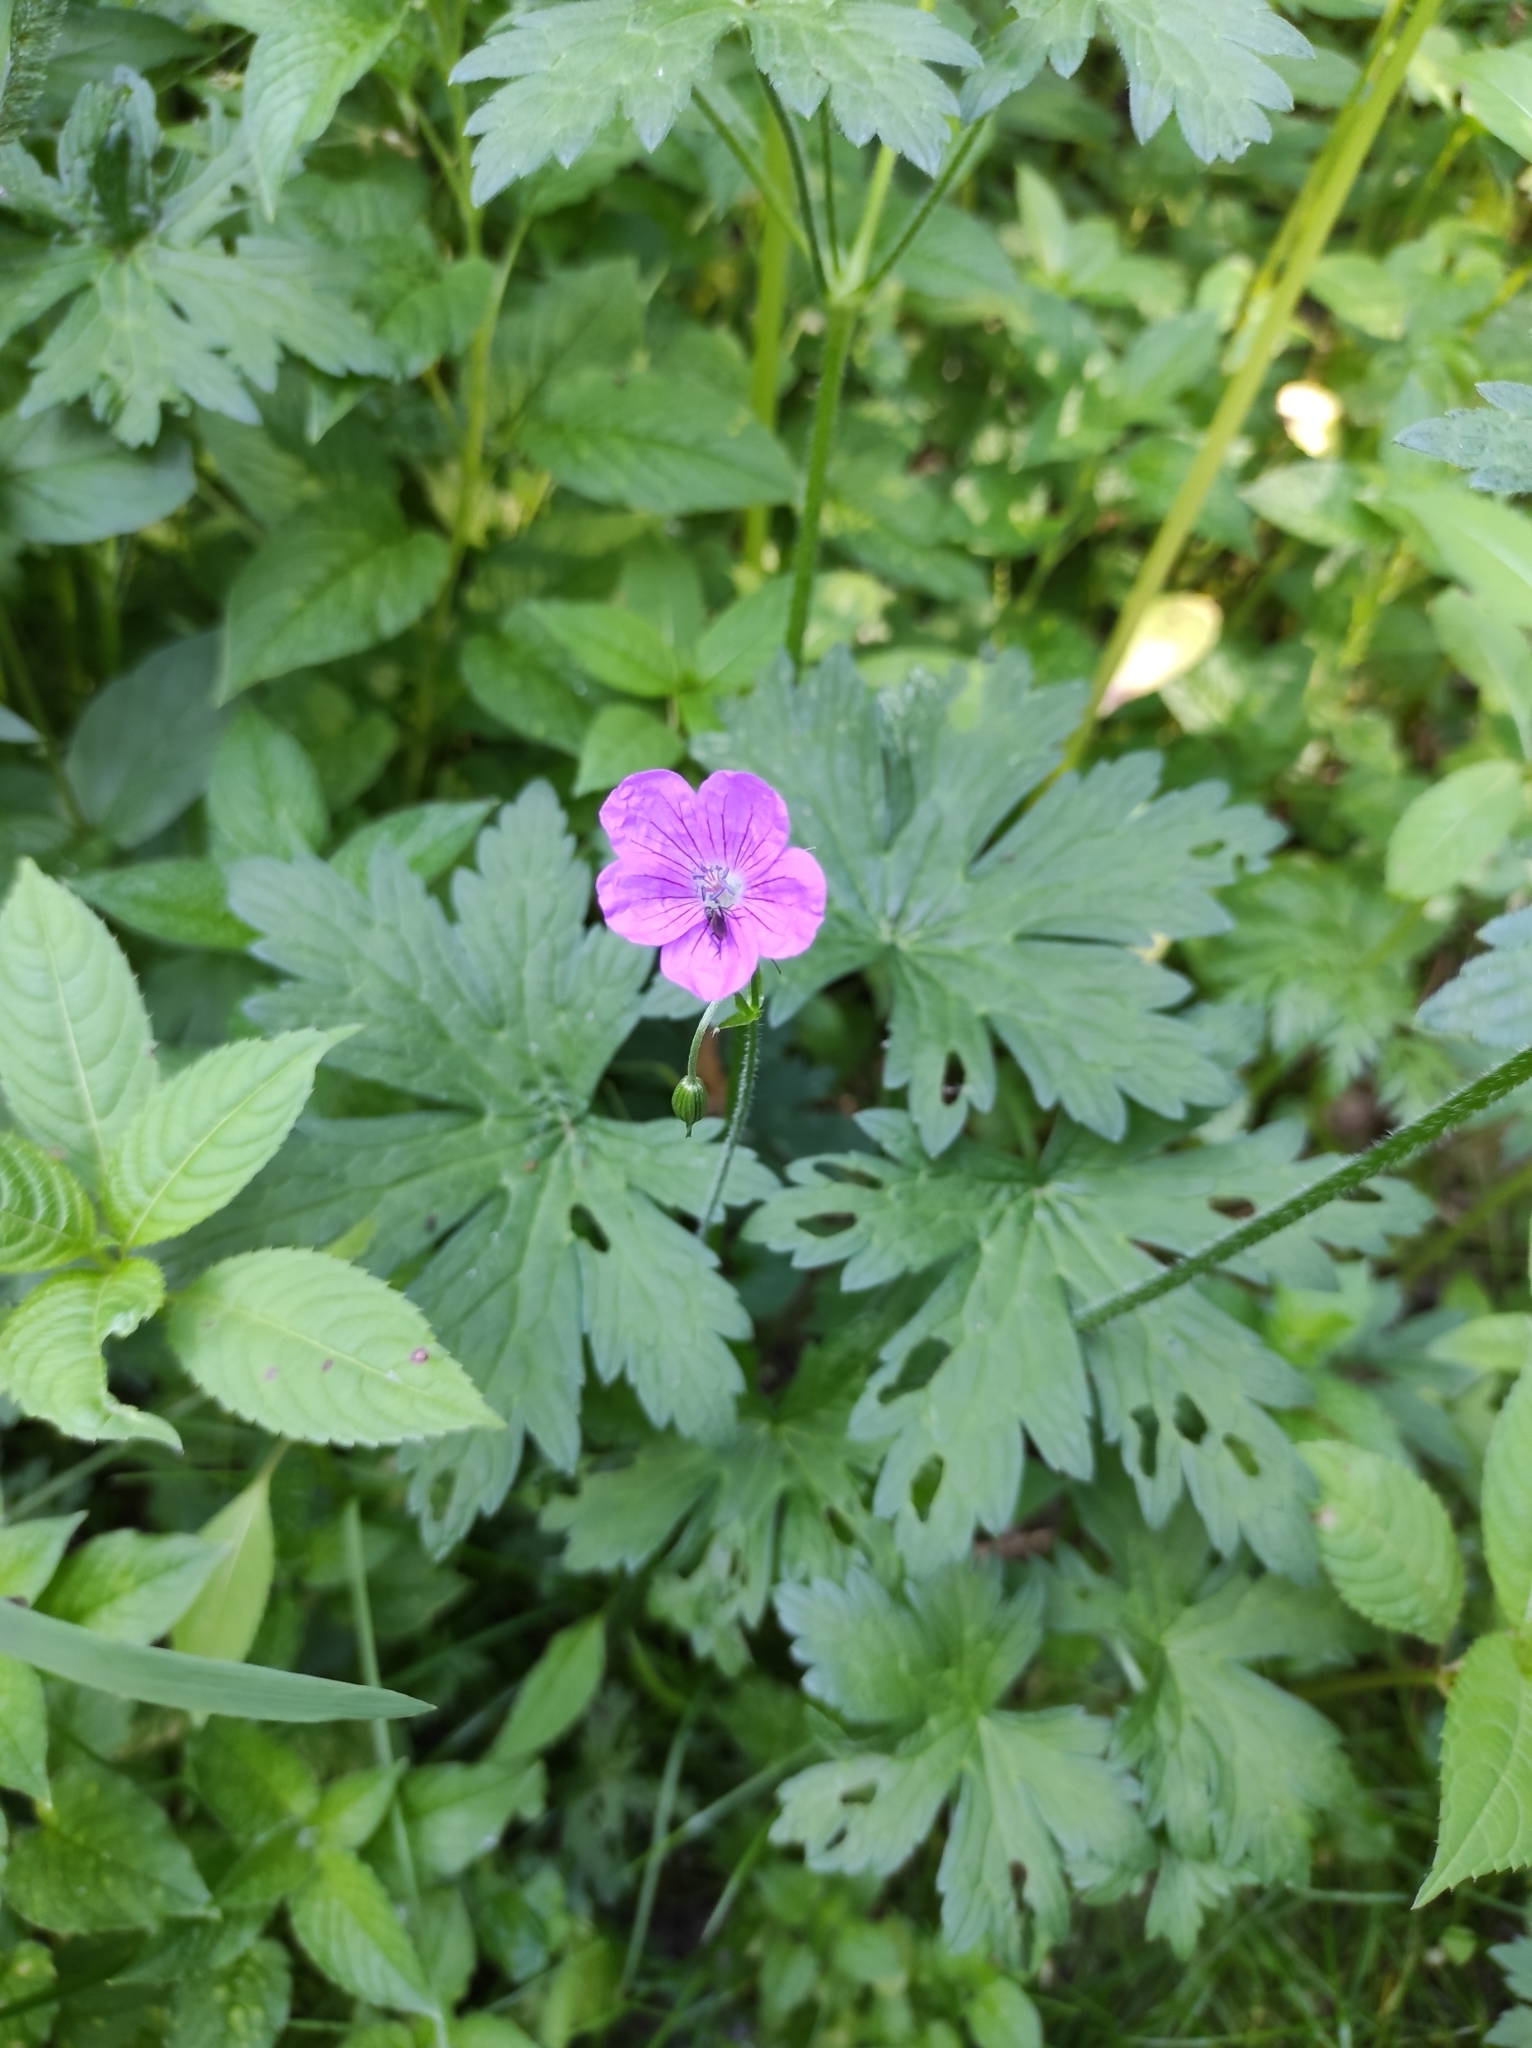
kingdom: Plantae
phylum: Tracheophyta
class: Magnoliopsida
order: Geraniales
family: Geraniaceae
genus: Geranium
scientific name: Geranium palustre
